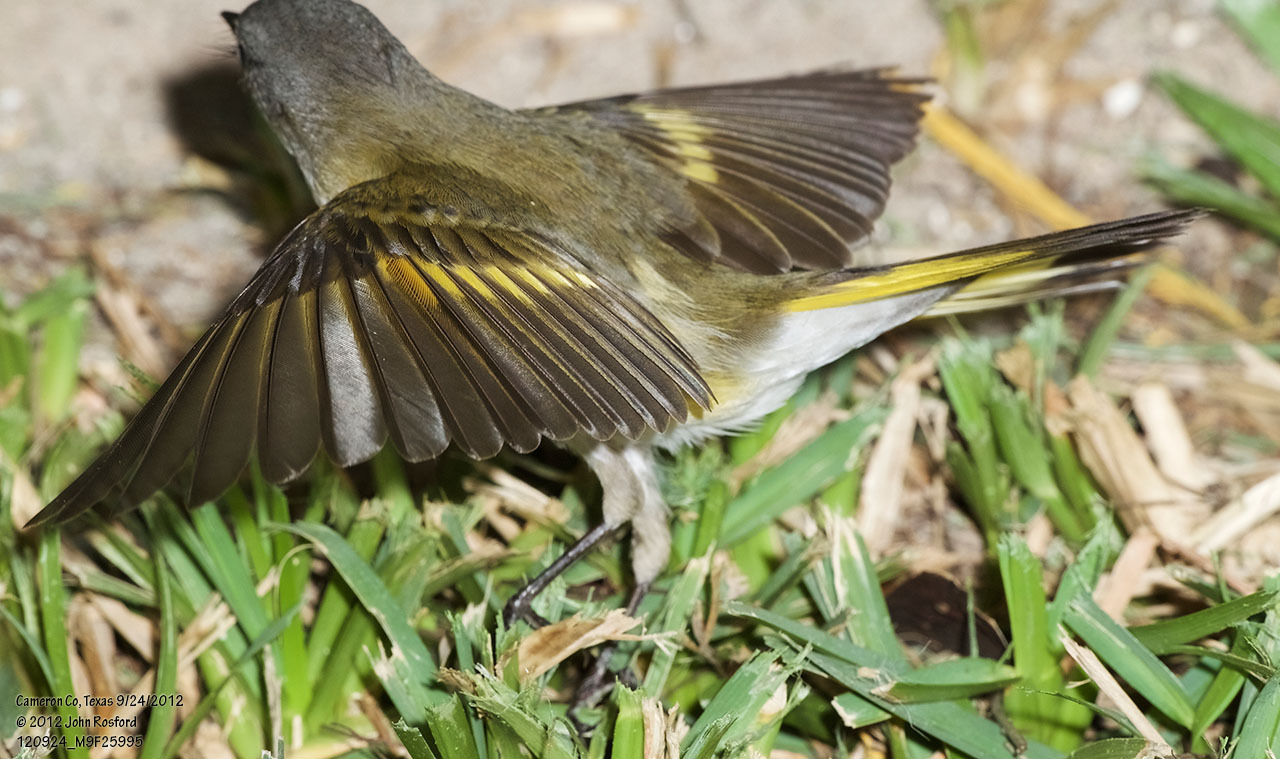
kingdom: Animalia
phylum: Chordata
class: Aves
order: Passeriformes
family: Parulidae
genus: Setophaga
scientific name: Setophaga ruticilla
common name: American redstart
